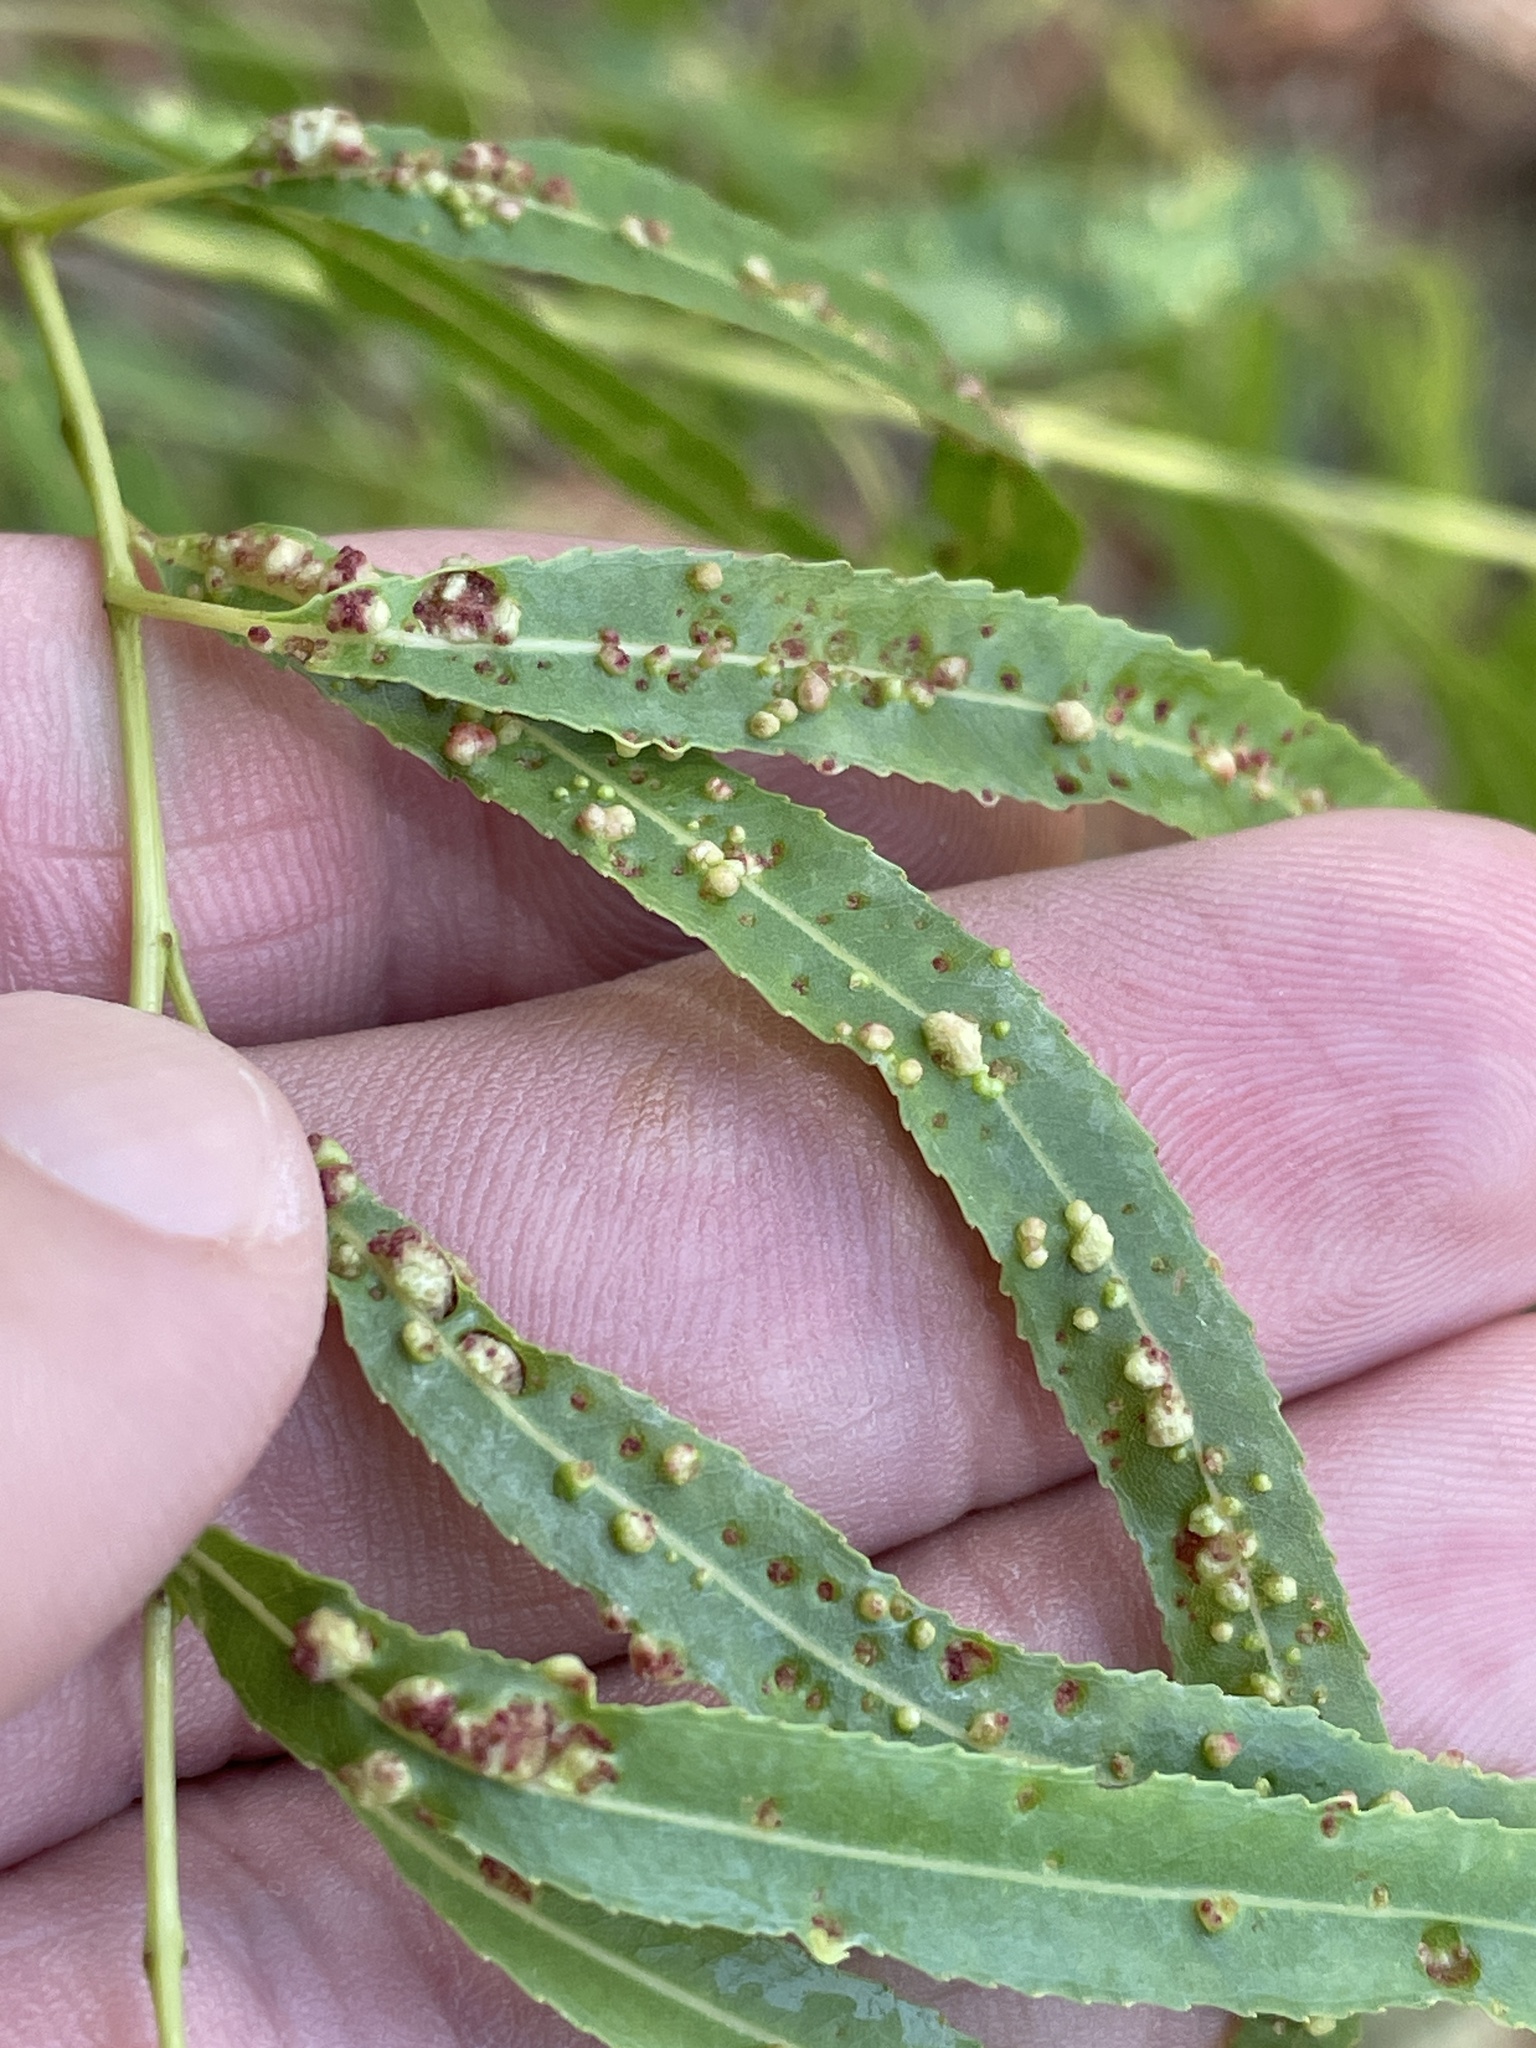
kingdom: Animalia
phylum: Arthropoda
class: Arachnida
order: Trombidiformes
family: Eriophyidae
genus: Aculus
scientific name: Aculus tetanothrix
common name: Willow bead gall mite
